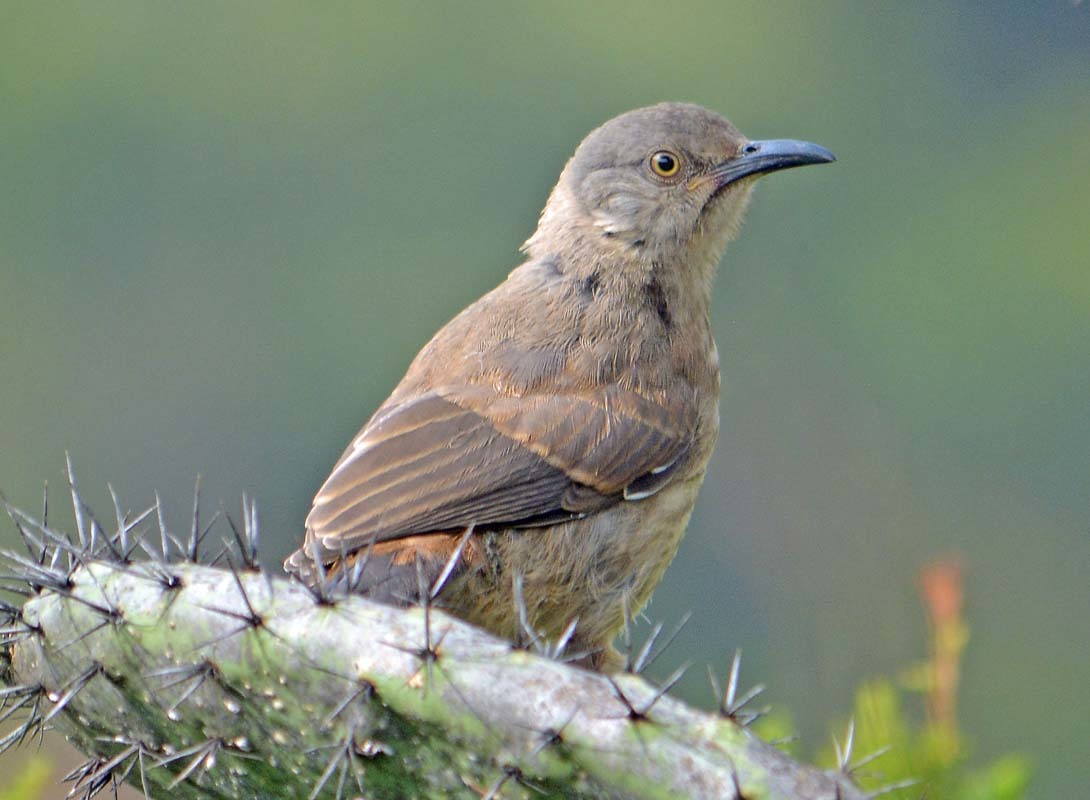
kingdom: Animalia
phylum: Chordata
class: Aves
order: Passeriformes
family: Mimidae
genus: Toxostoma
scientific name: Toxostoma curvirostre
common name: Curve-billed thrasher
